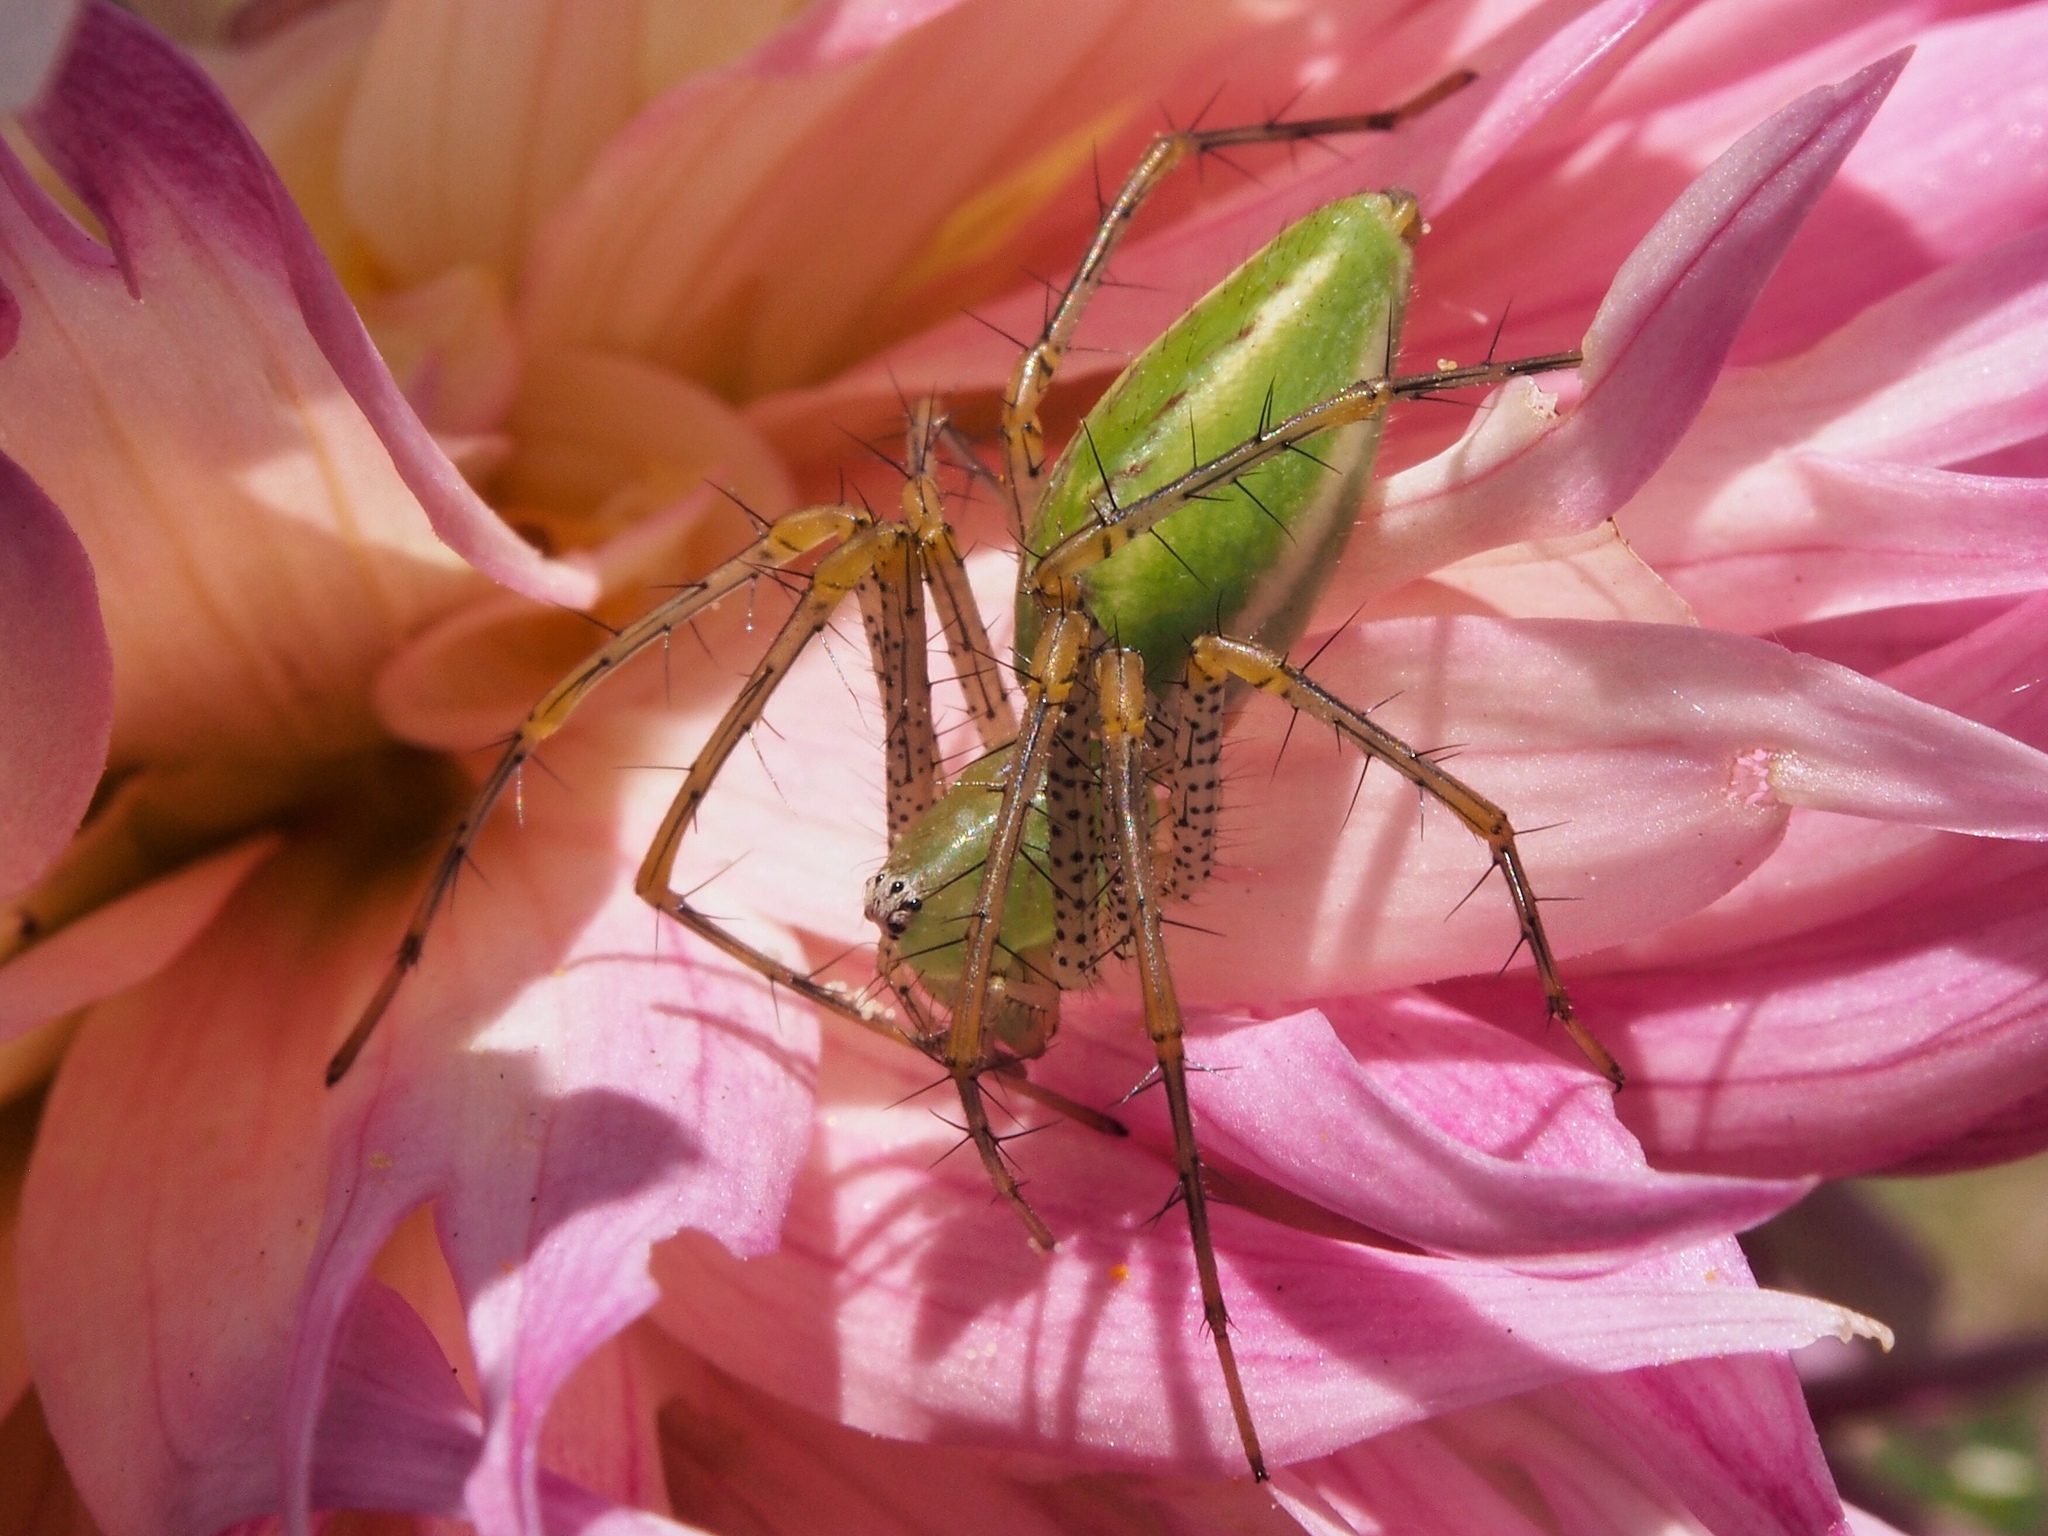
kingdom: Animalia
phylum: Arthropoda
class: Arachnida
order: Araneae
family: Oxyopidae
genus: Peucetia
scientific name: Peucetia viridans
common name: Lynx spiders
